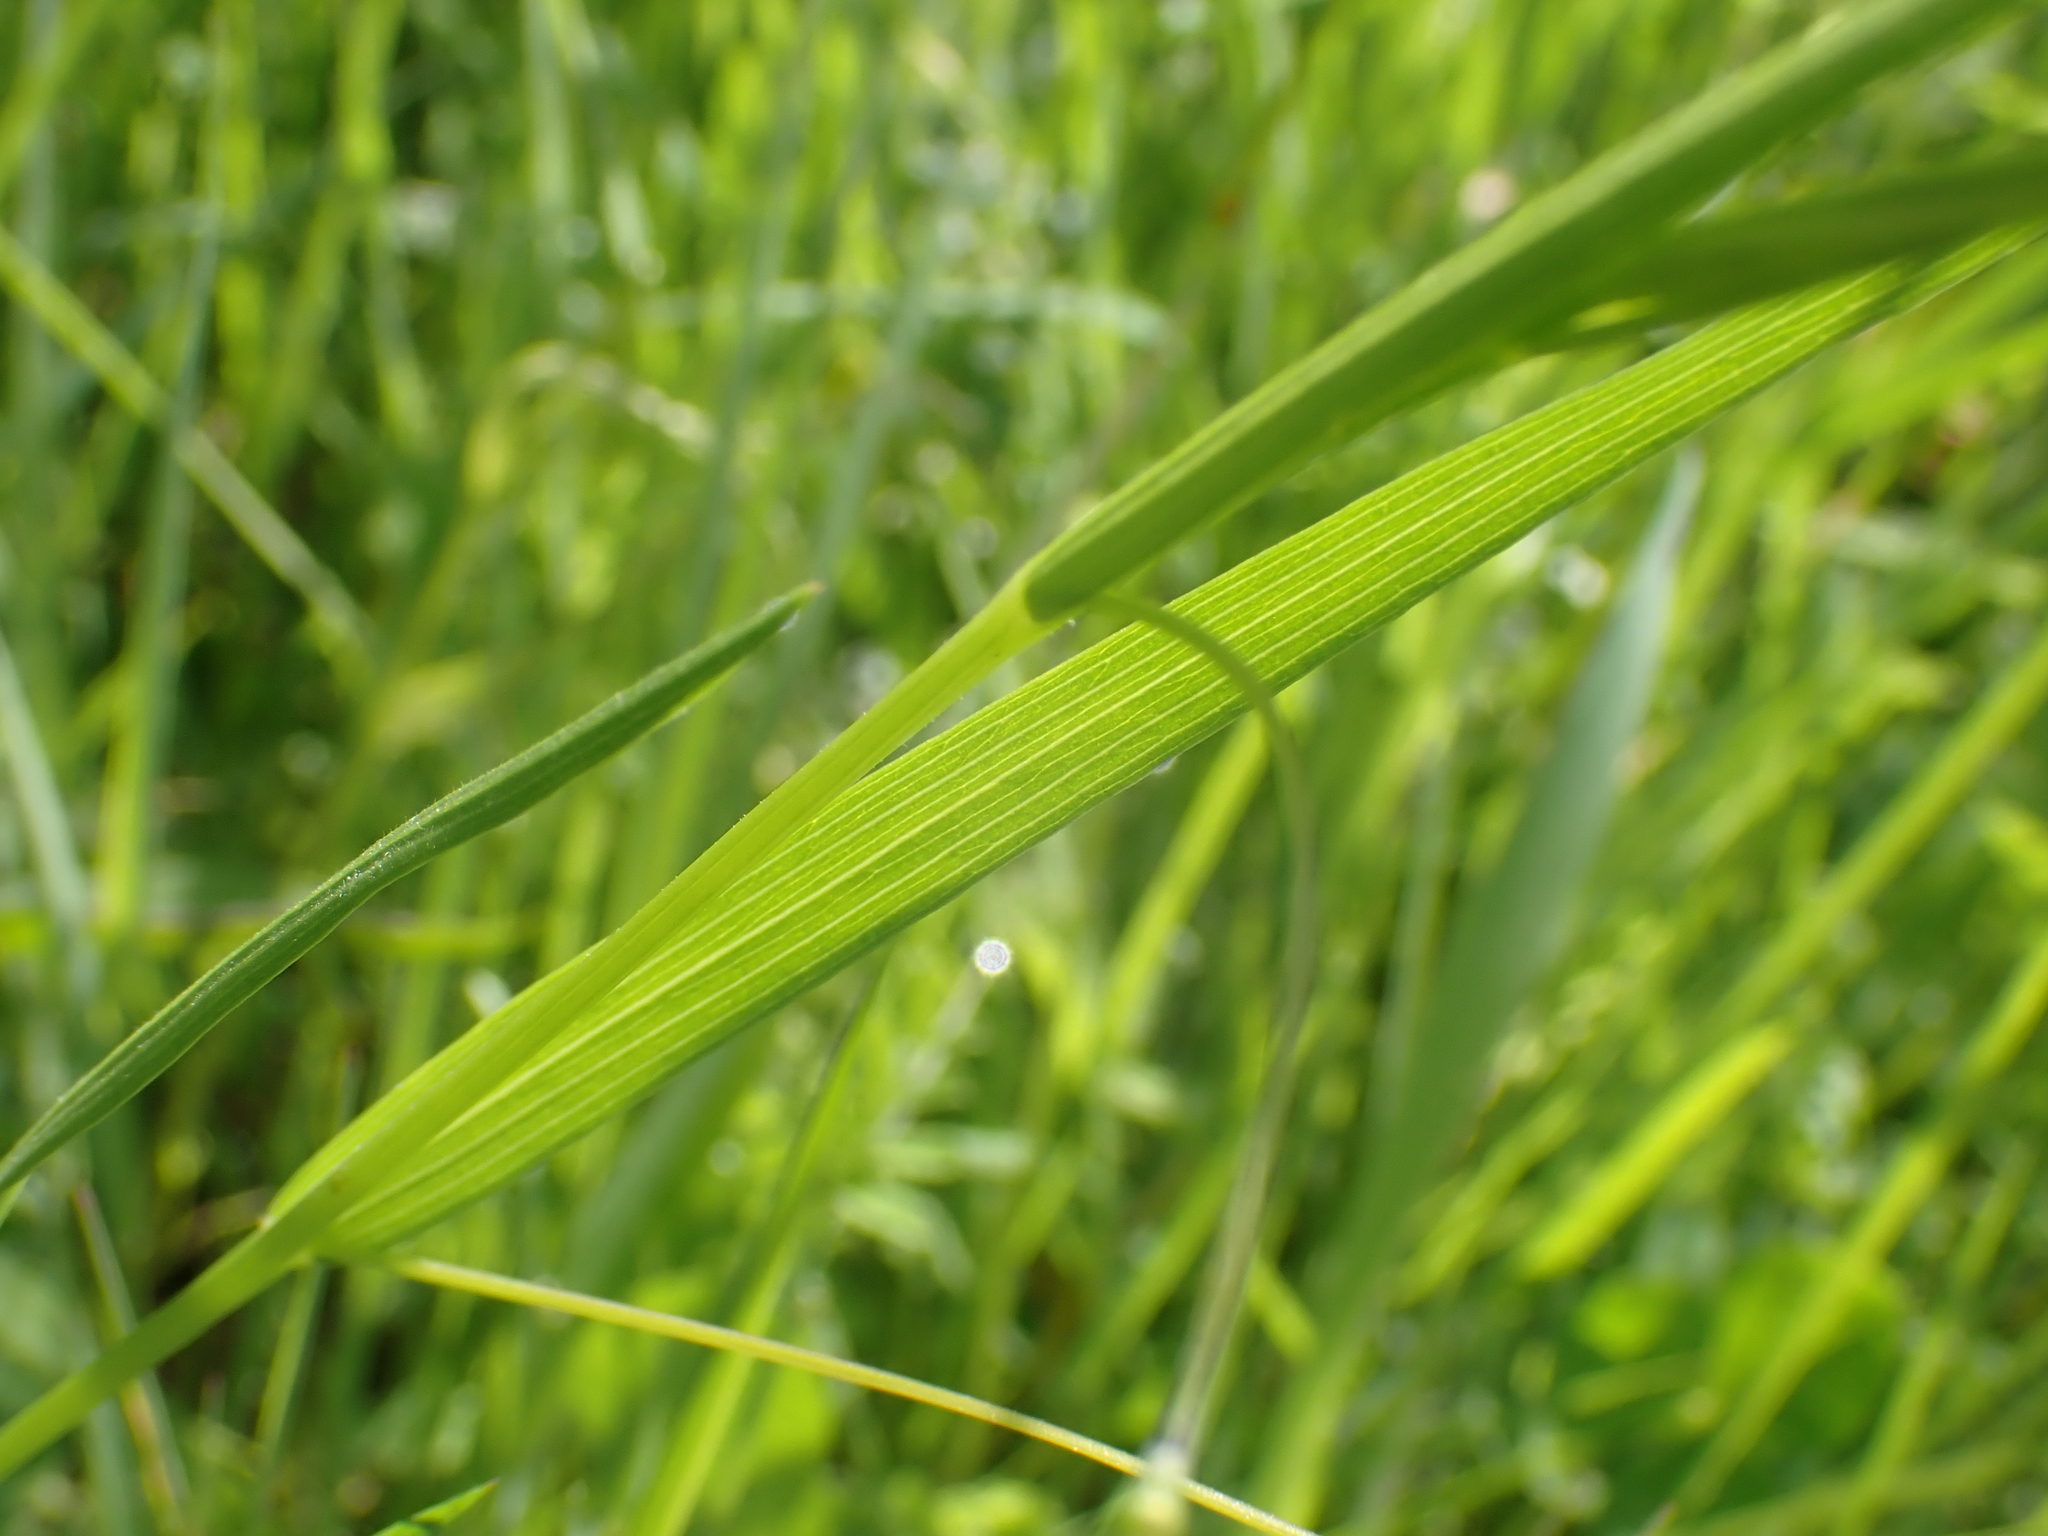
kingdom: Plantae
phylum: Tracheophyta
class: Magnoliopsida
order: Fabales
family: Fabaceae
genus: Lathyrus
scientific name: Lathyrus nissolia
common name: Grass vetchling
